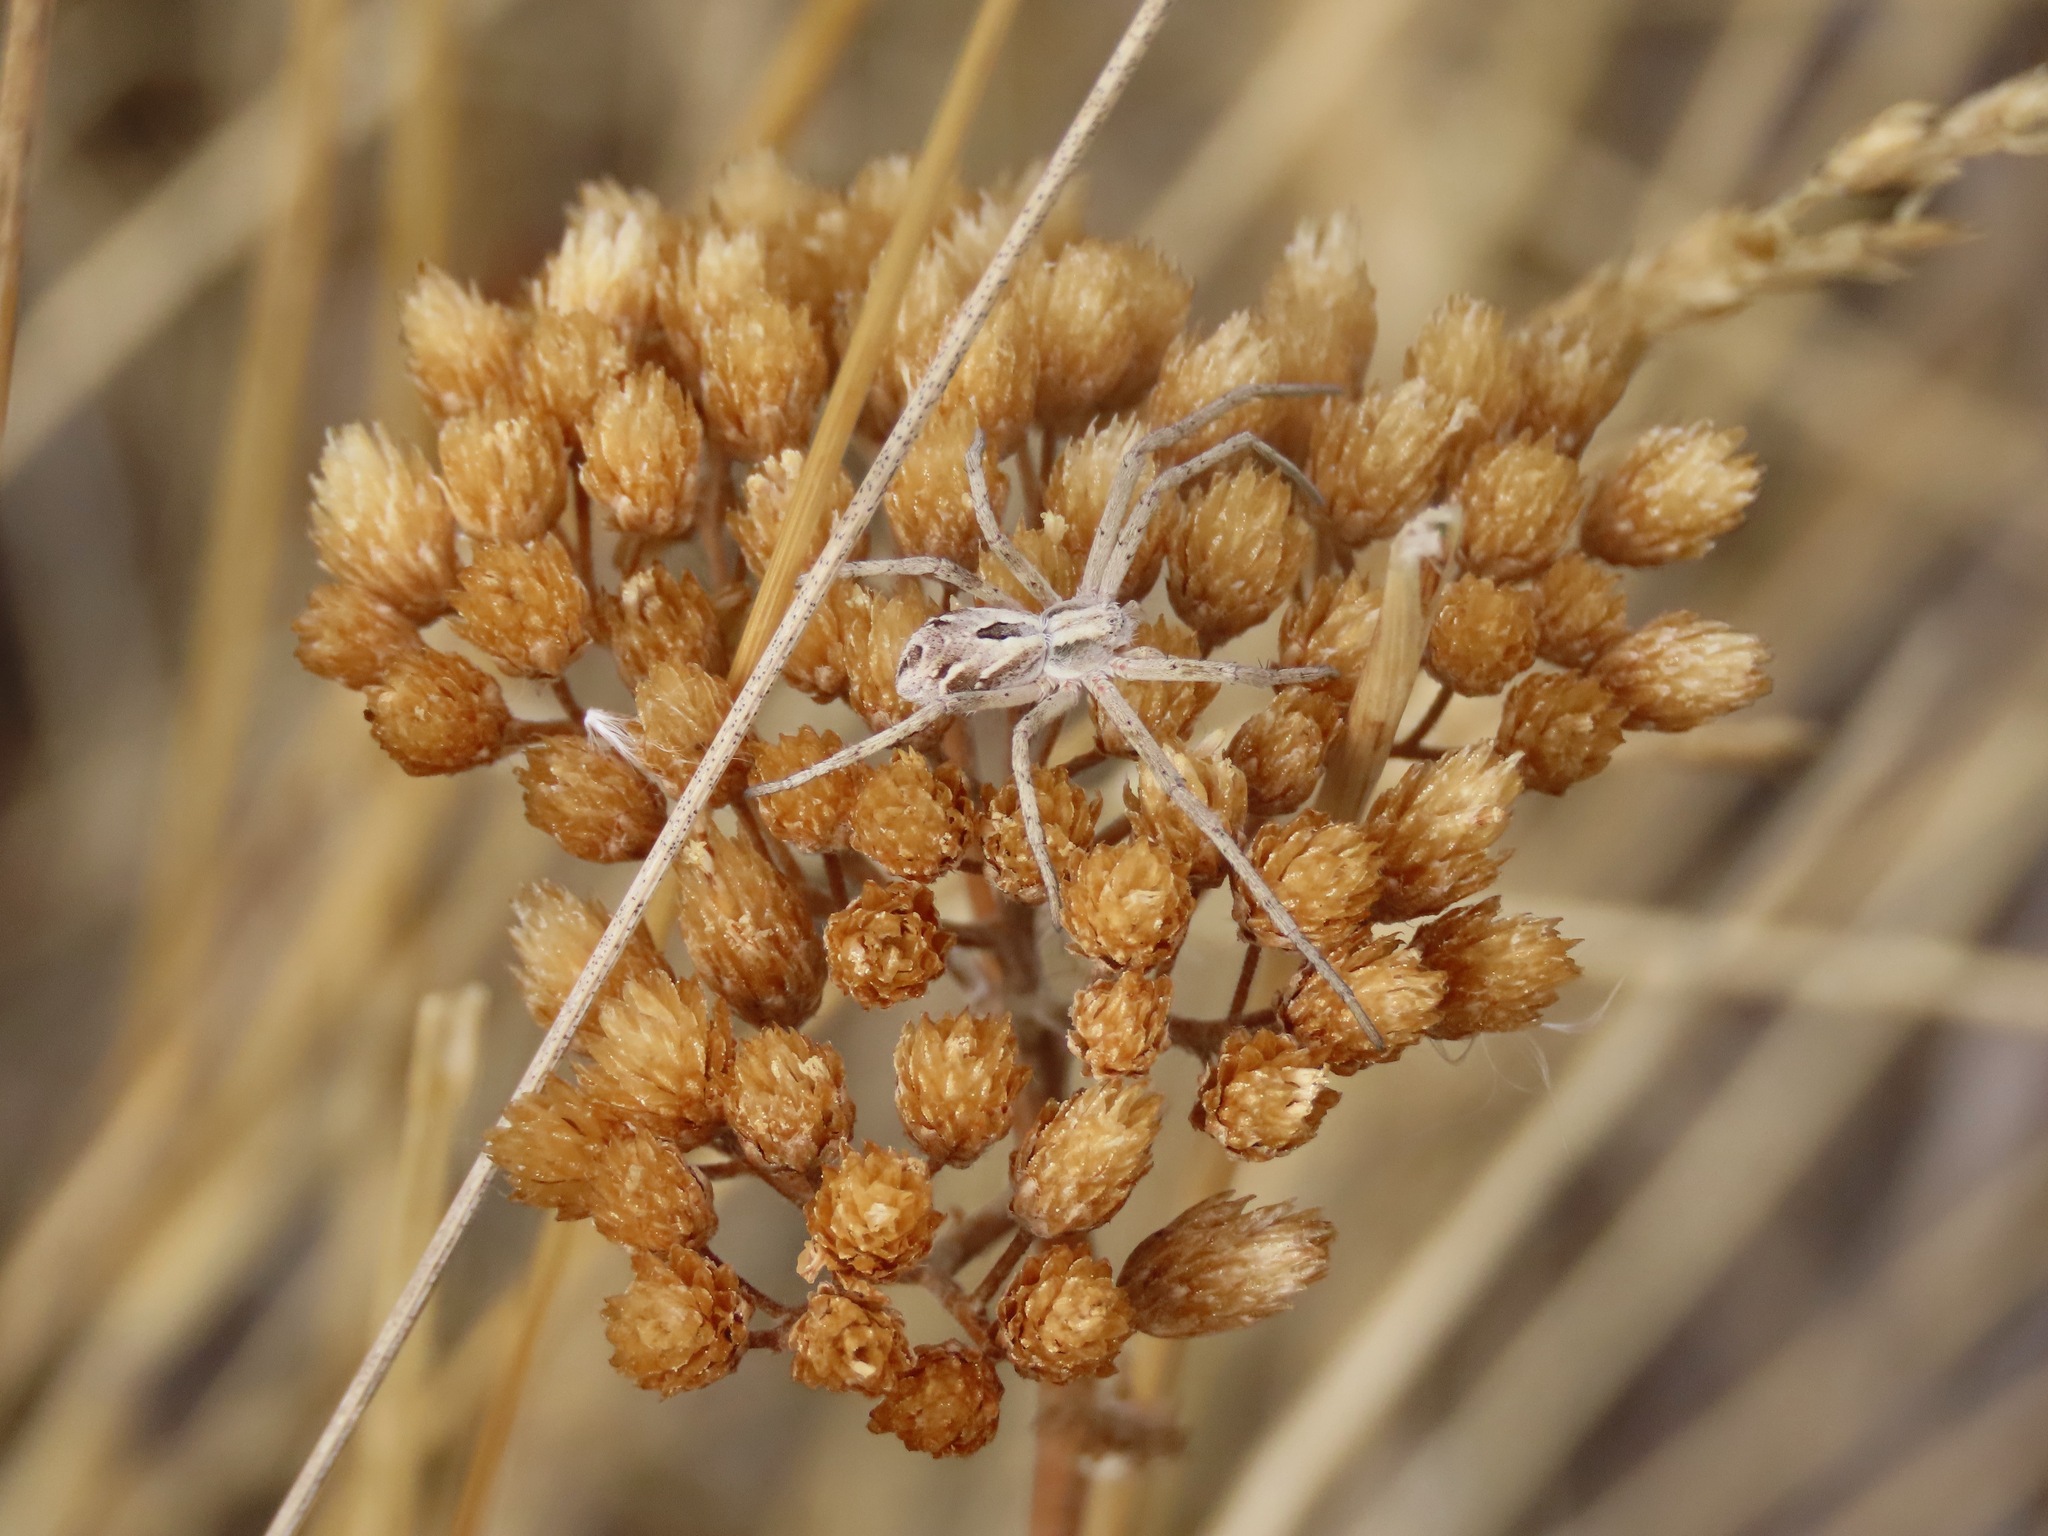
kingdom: Animalia
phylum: Arthropoda
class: Arachnida
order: Araneae
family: Philodromidae
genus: Rhysodromus
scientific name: Rhysodromus histrio
